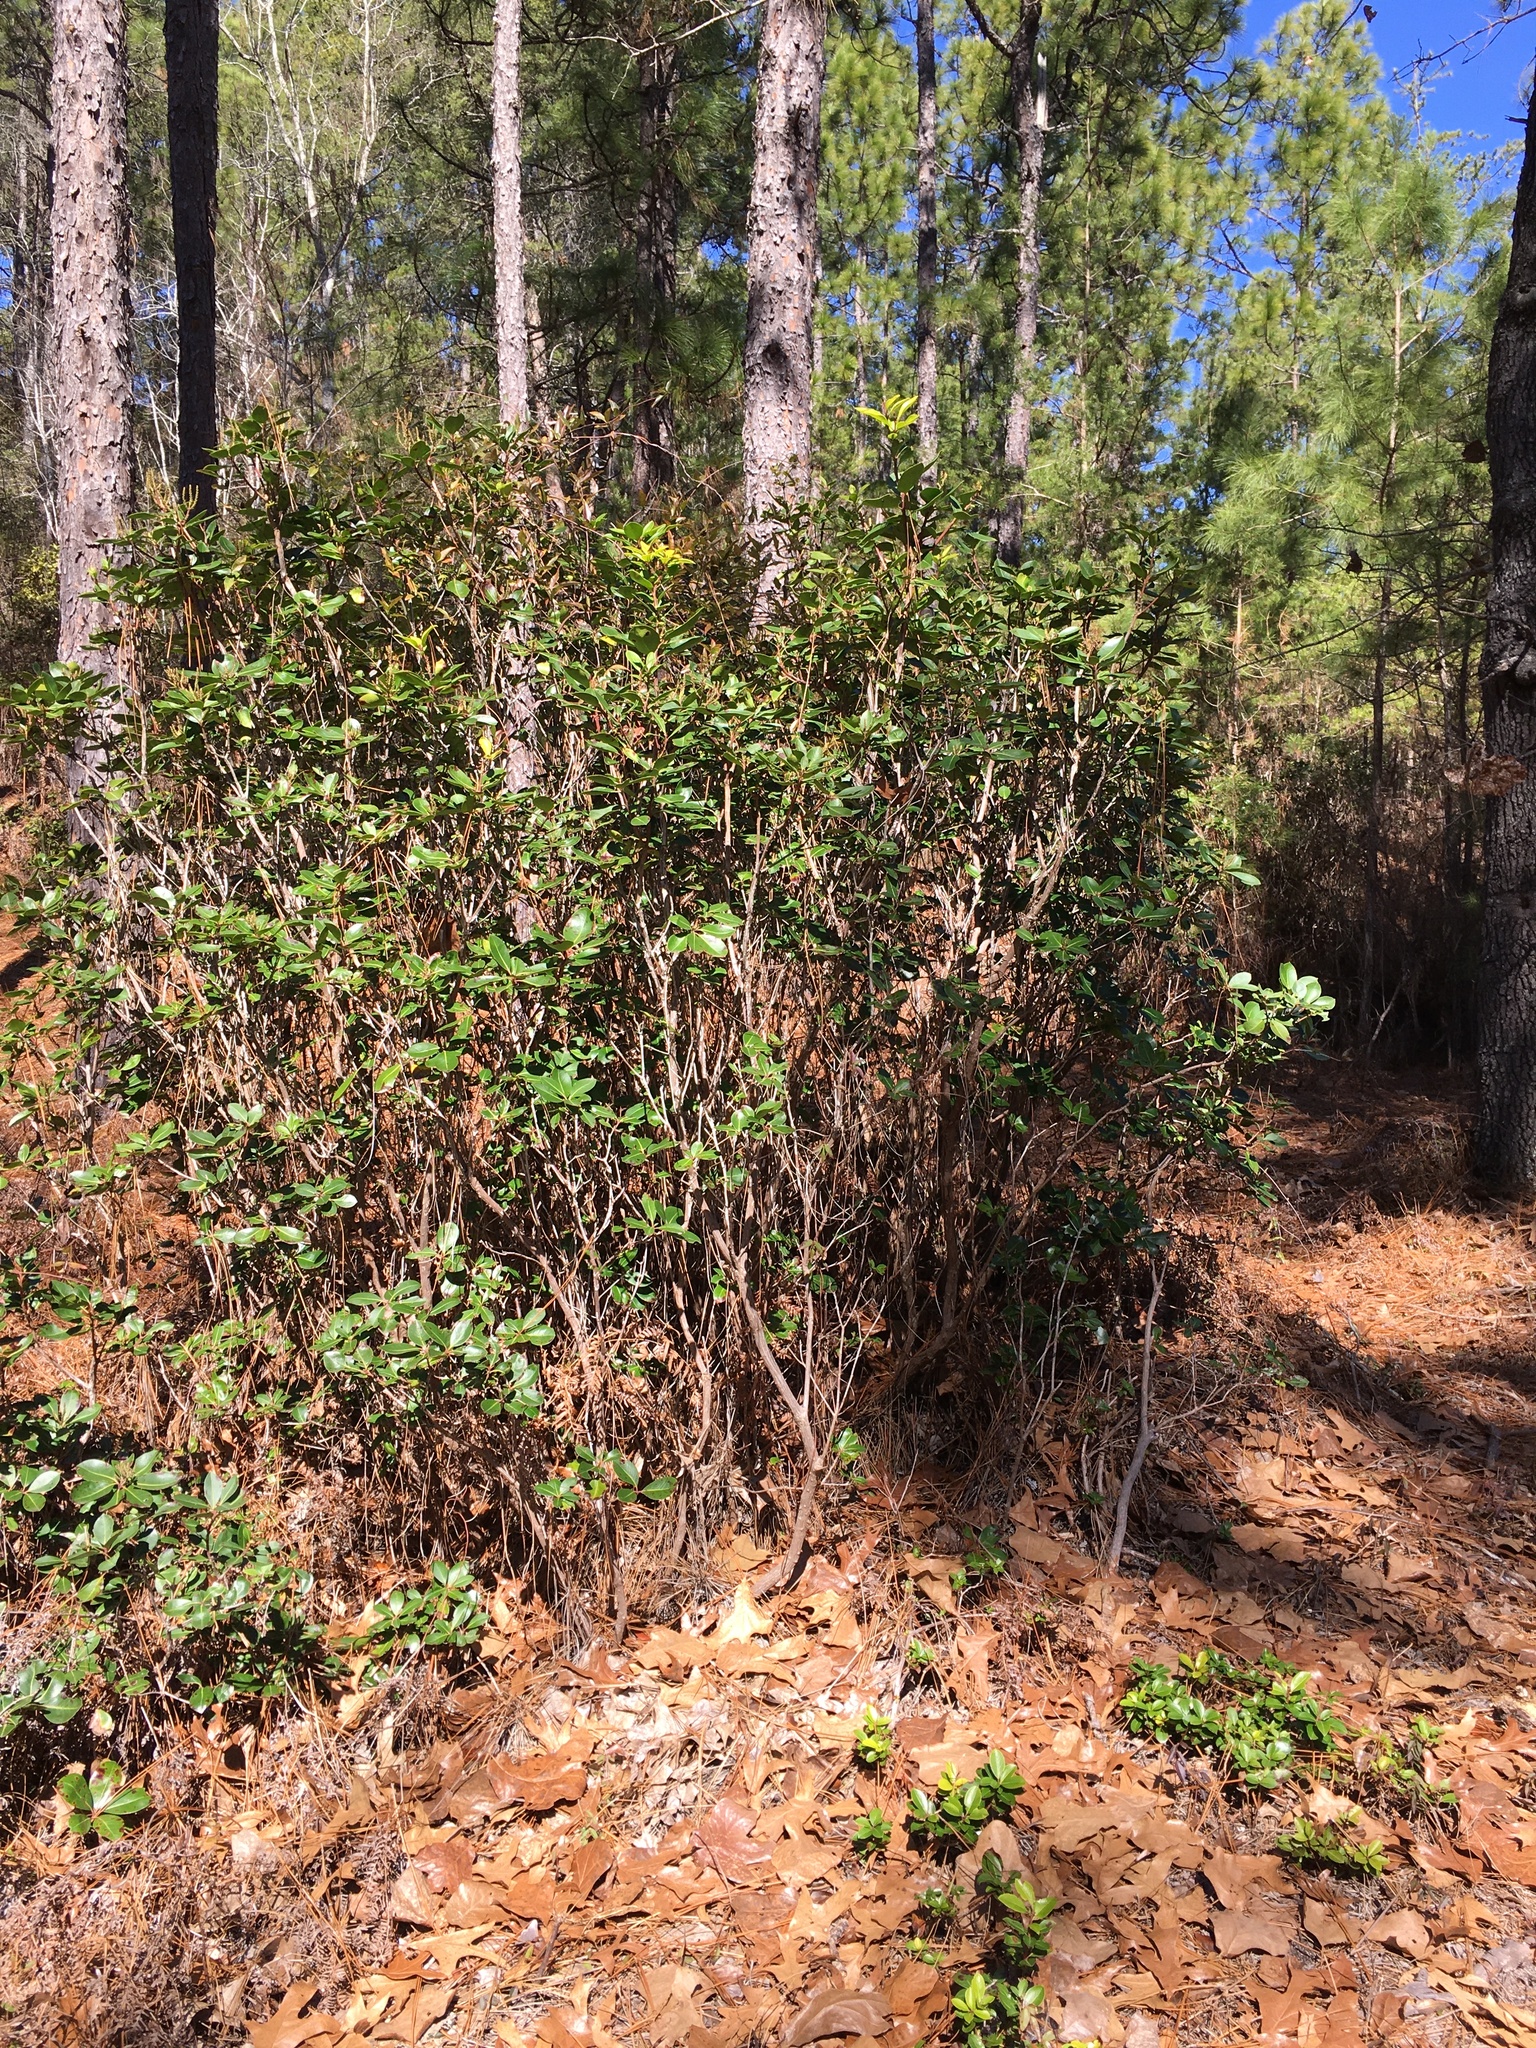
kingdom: Plantae
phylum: Tracheophyta
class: Magnoliopsida
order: Ericales
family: Ericaceae
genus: Kalmia
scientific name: Kalmia latifolia
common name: Mountain-laurel
